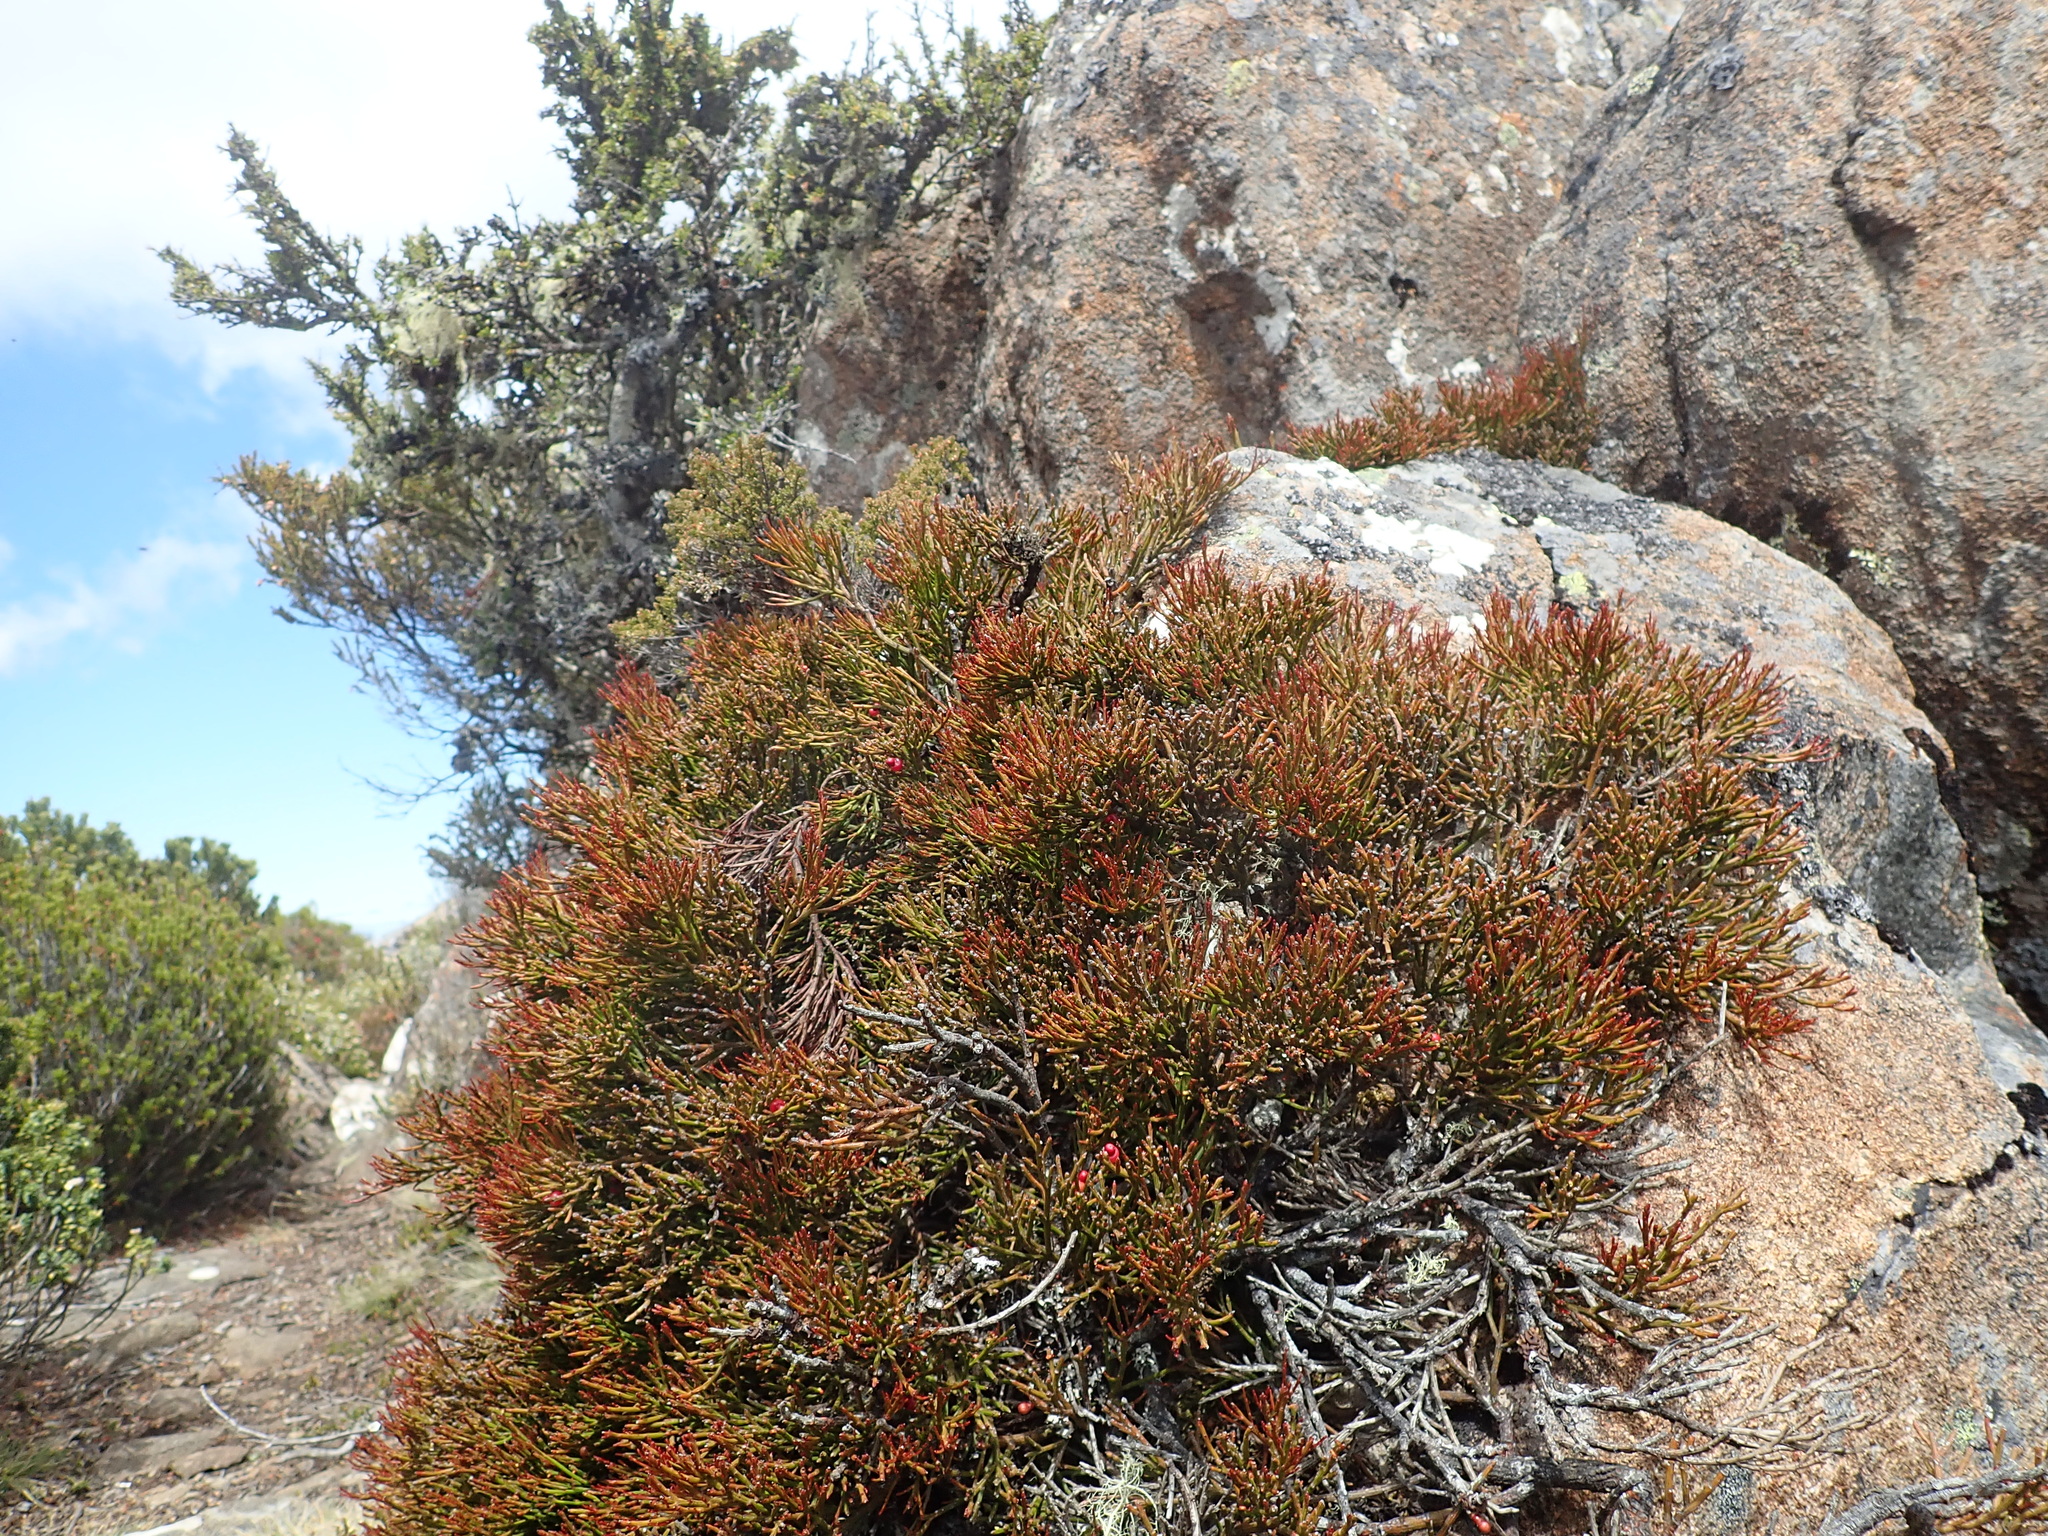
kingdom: Plantae
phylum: Tracheophyta
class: Magnoliopsida
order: Santalales
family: Santalaceae
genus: Exocarpos
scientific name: Exocarpos humifusus
